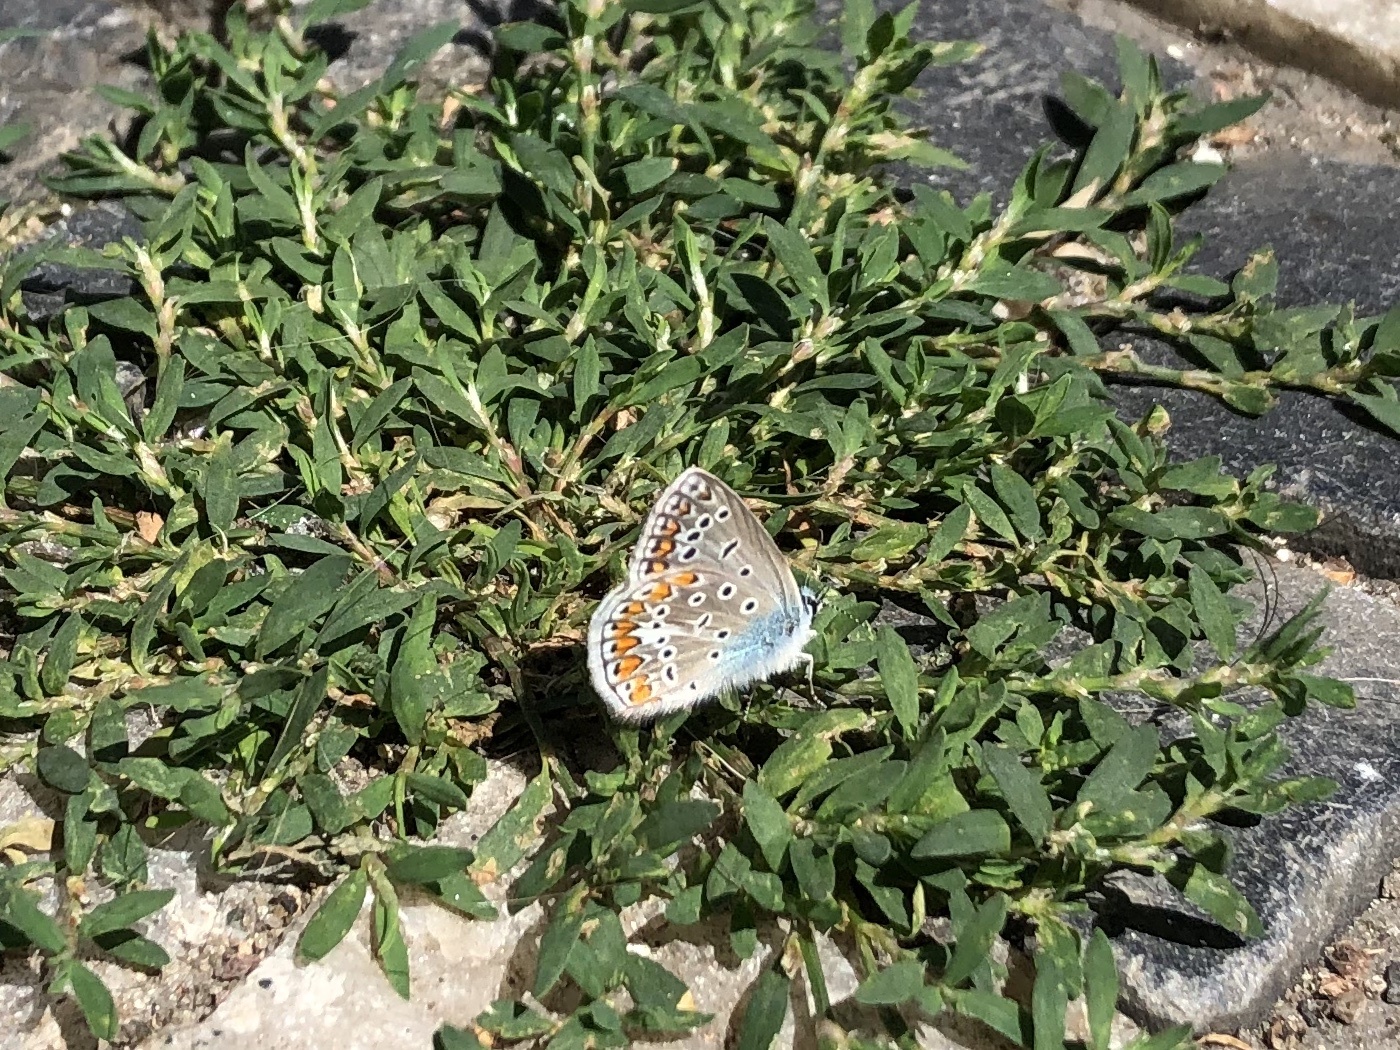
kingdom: Animalia
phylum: Arthropoda
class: Insecta
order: Lepidoptera
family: Lycaenidae
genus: Polyommatus
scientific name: Polyommatus icarus
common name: Common blue
